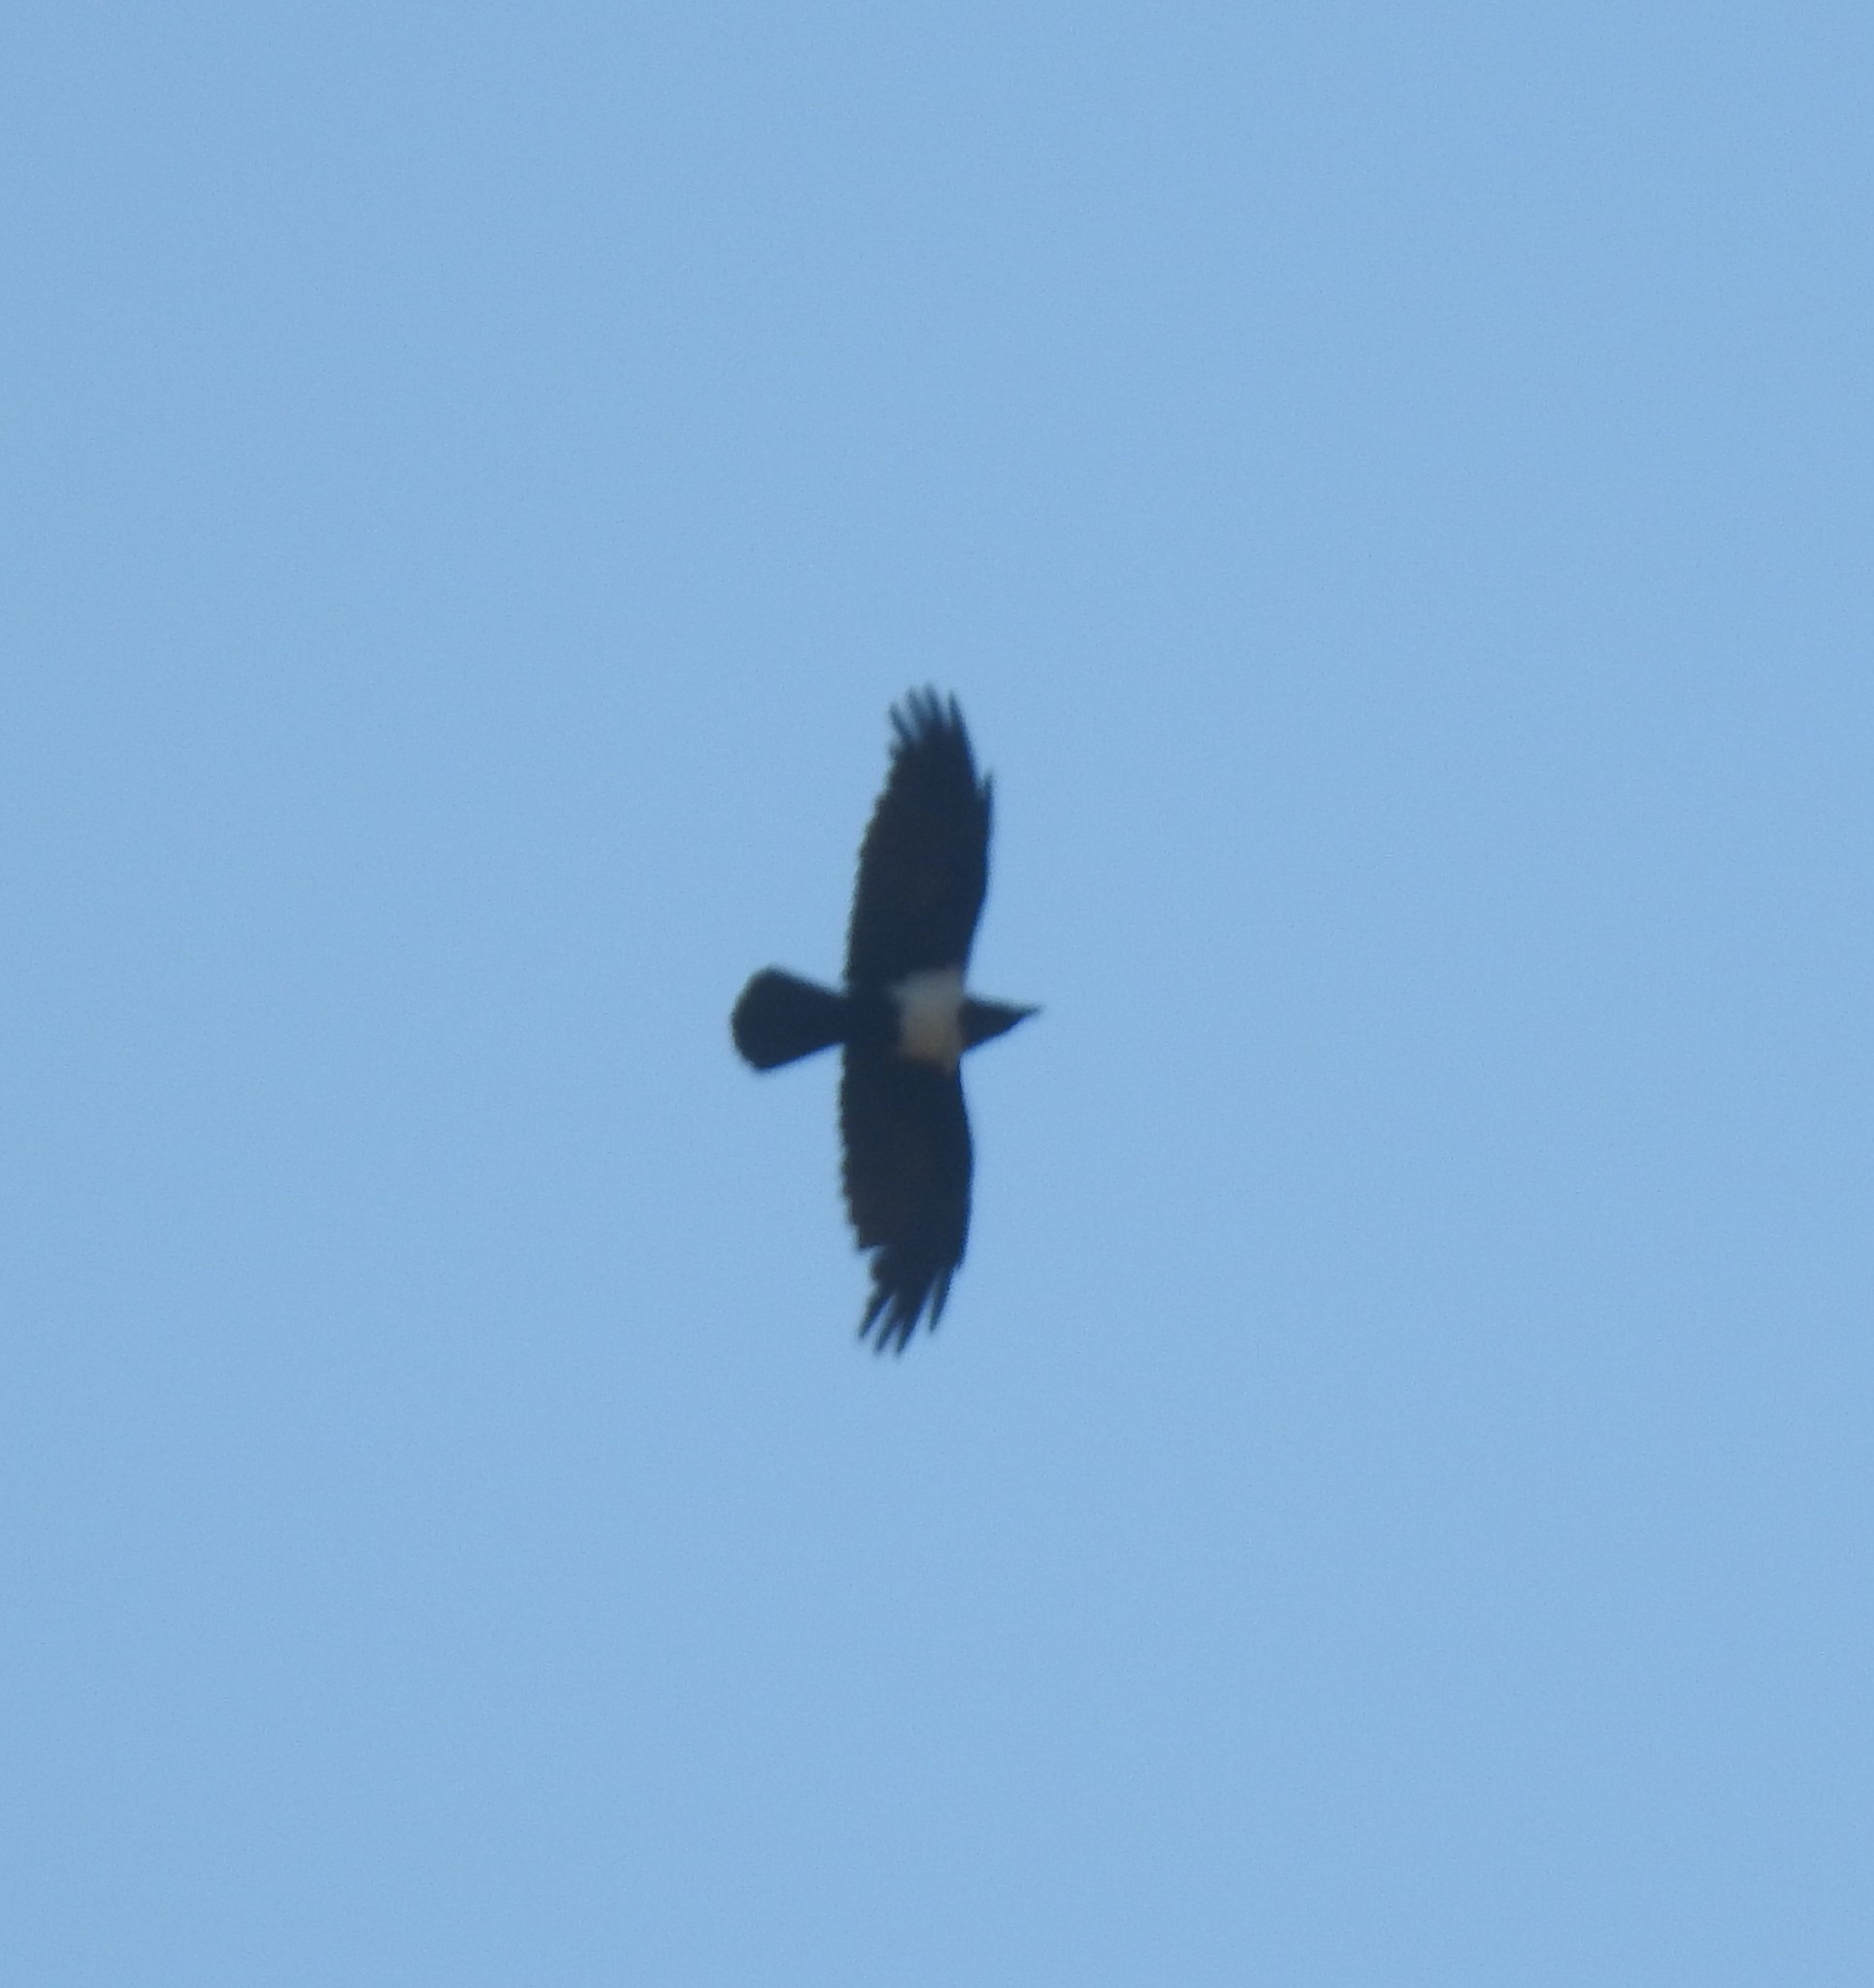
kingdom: Animalia
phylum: Chordata
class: Aves
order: Passeriformes
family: Corvidae
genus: Corvus
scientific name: Corvus albus
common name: Pied crow
